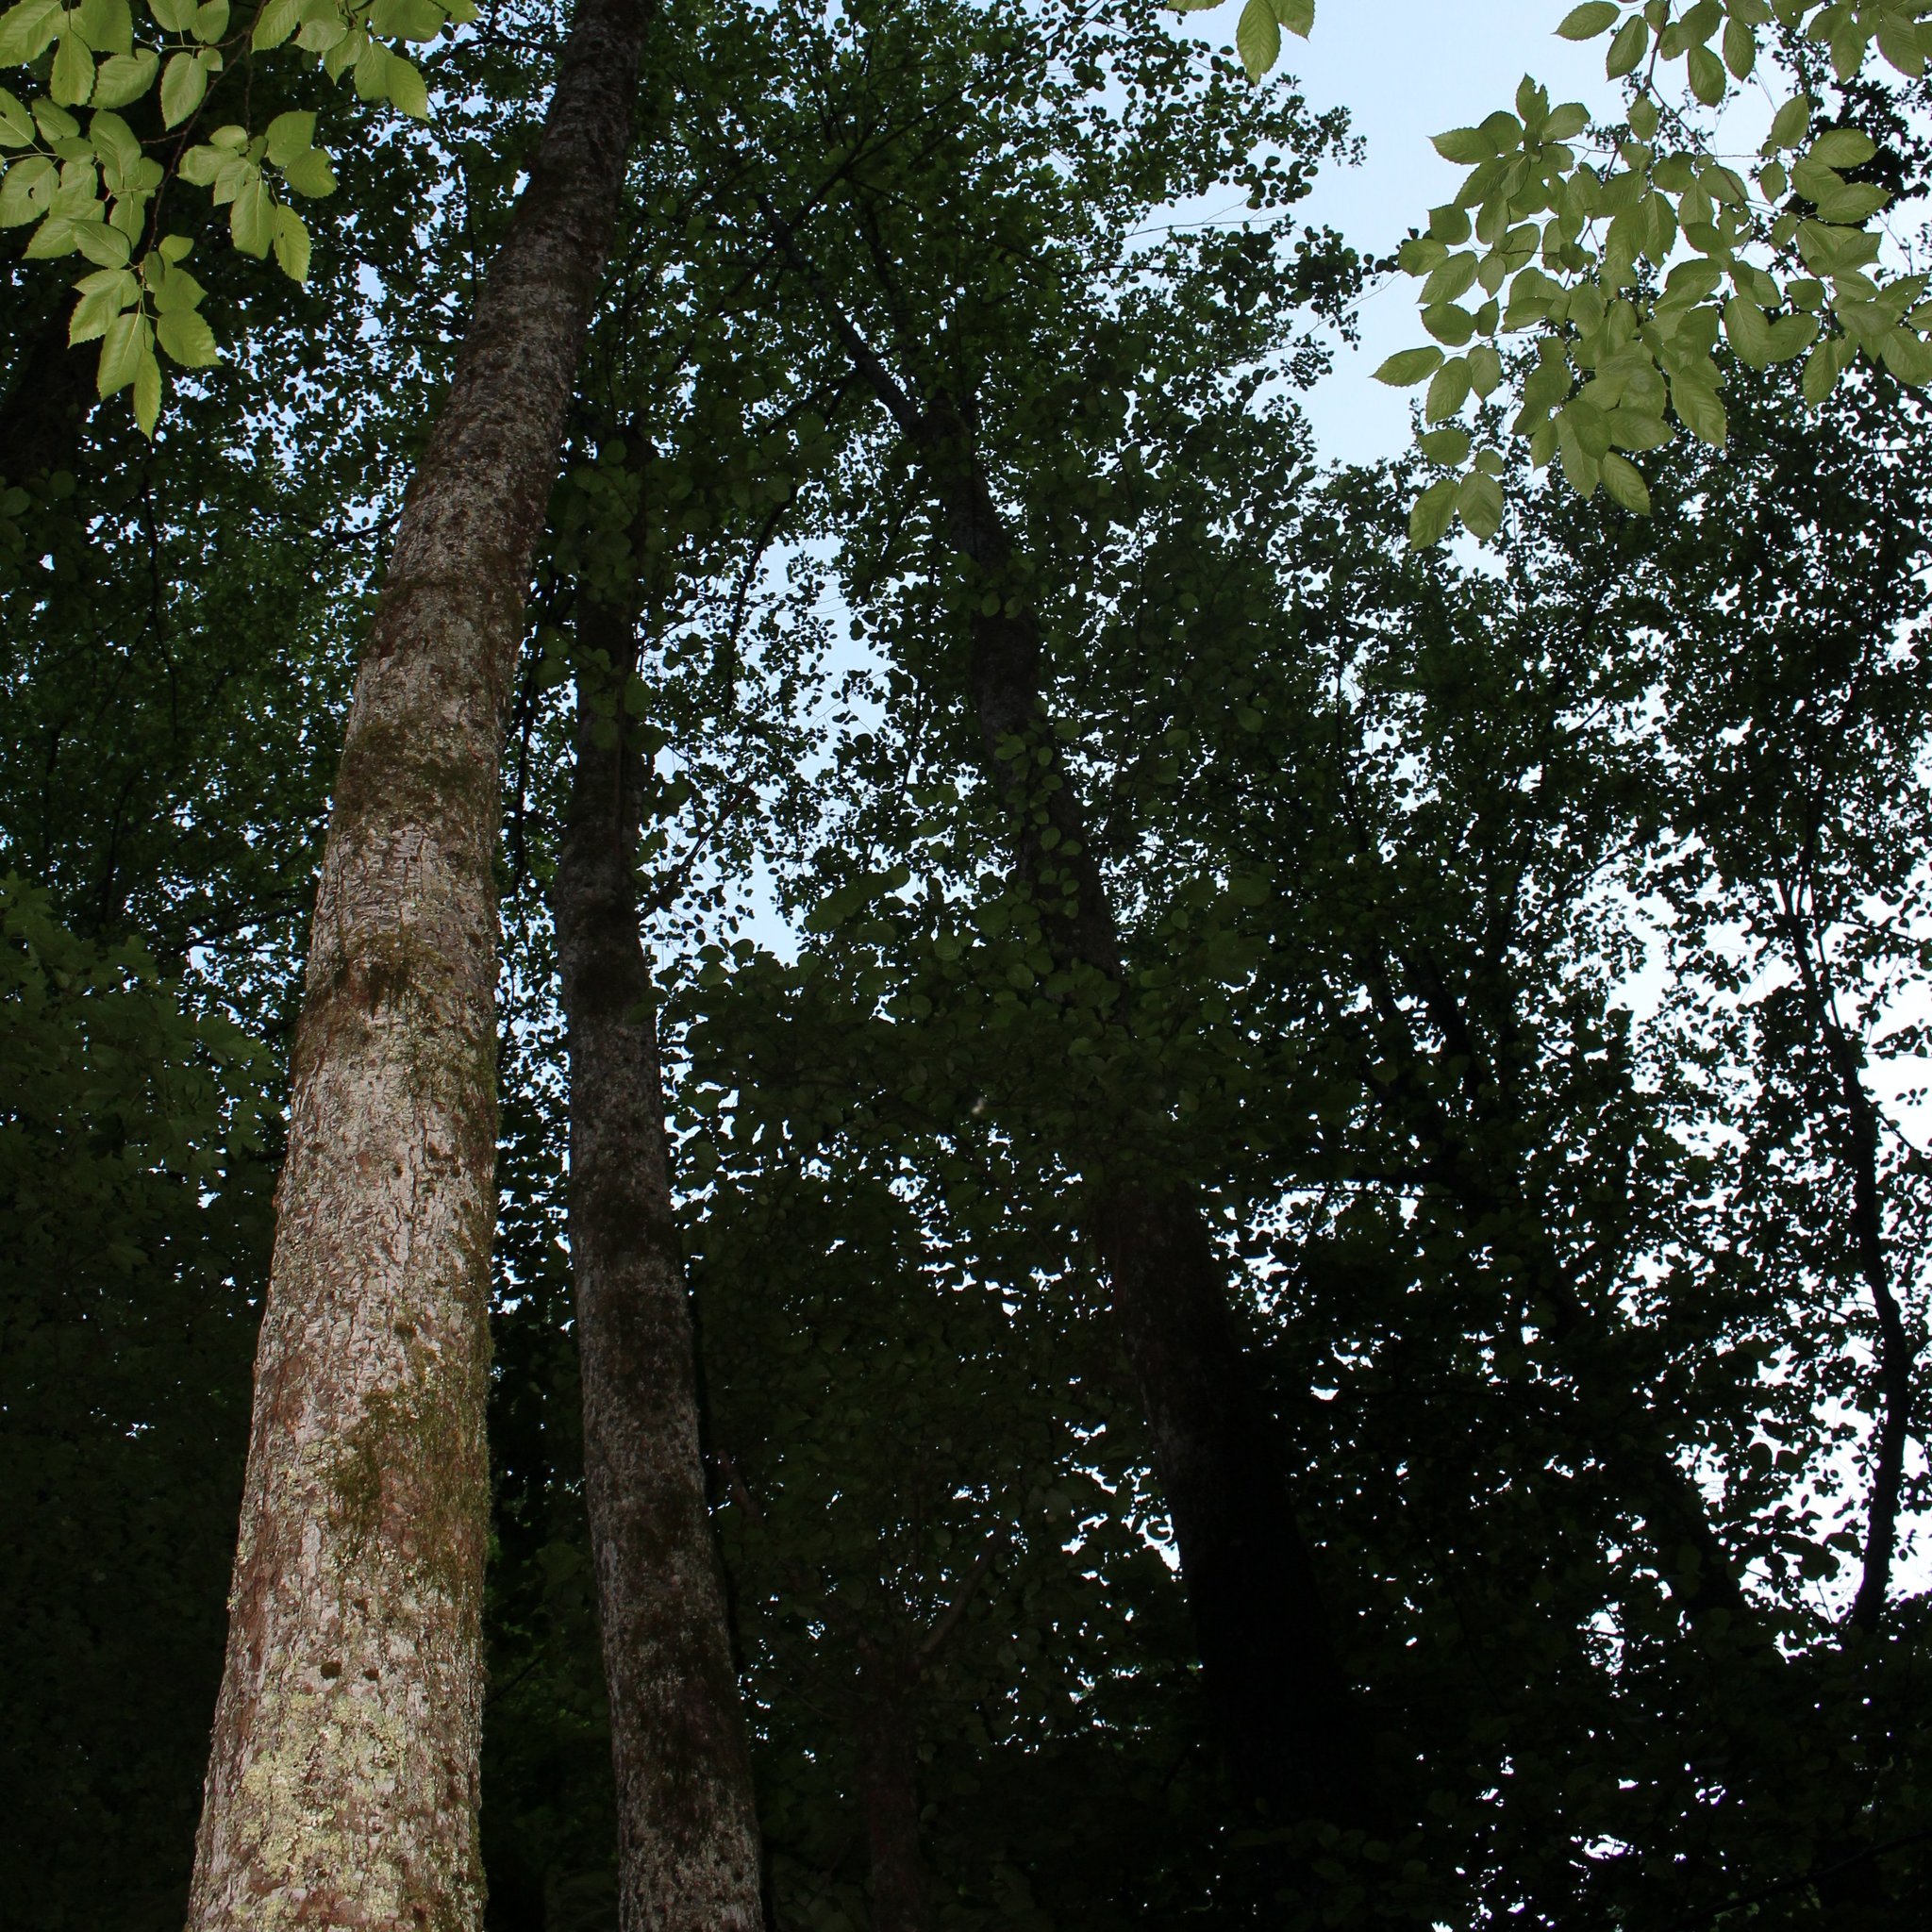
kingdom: Plantae
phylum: Tracheophyta
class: Magnoliopsida
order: Fagales
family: Betulaceae
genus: Alnus
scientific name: Alnus glutinosa
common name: Black alder
